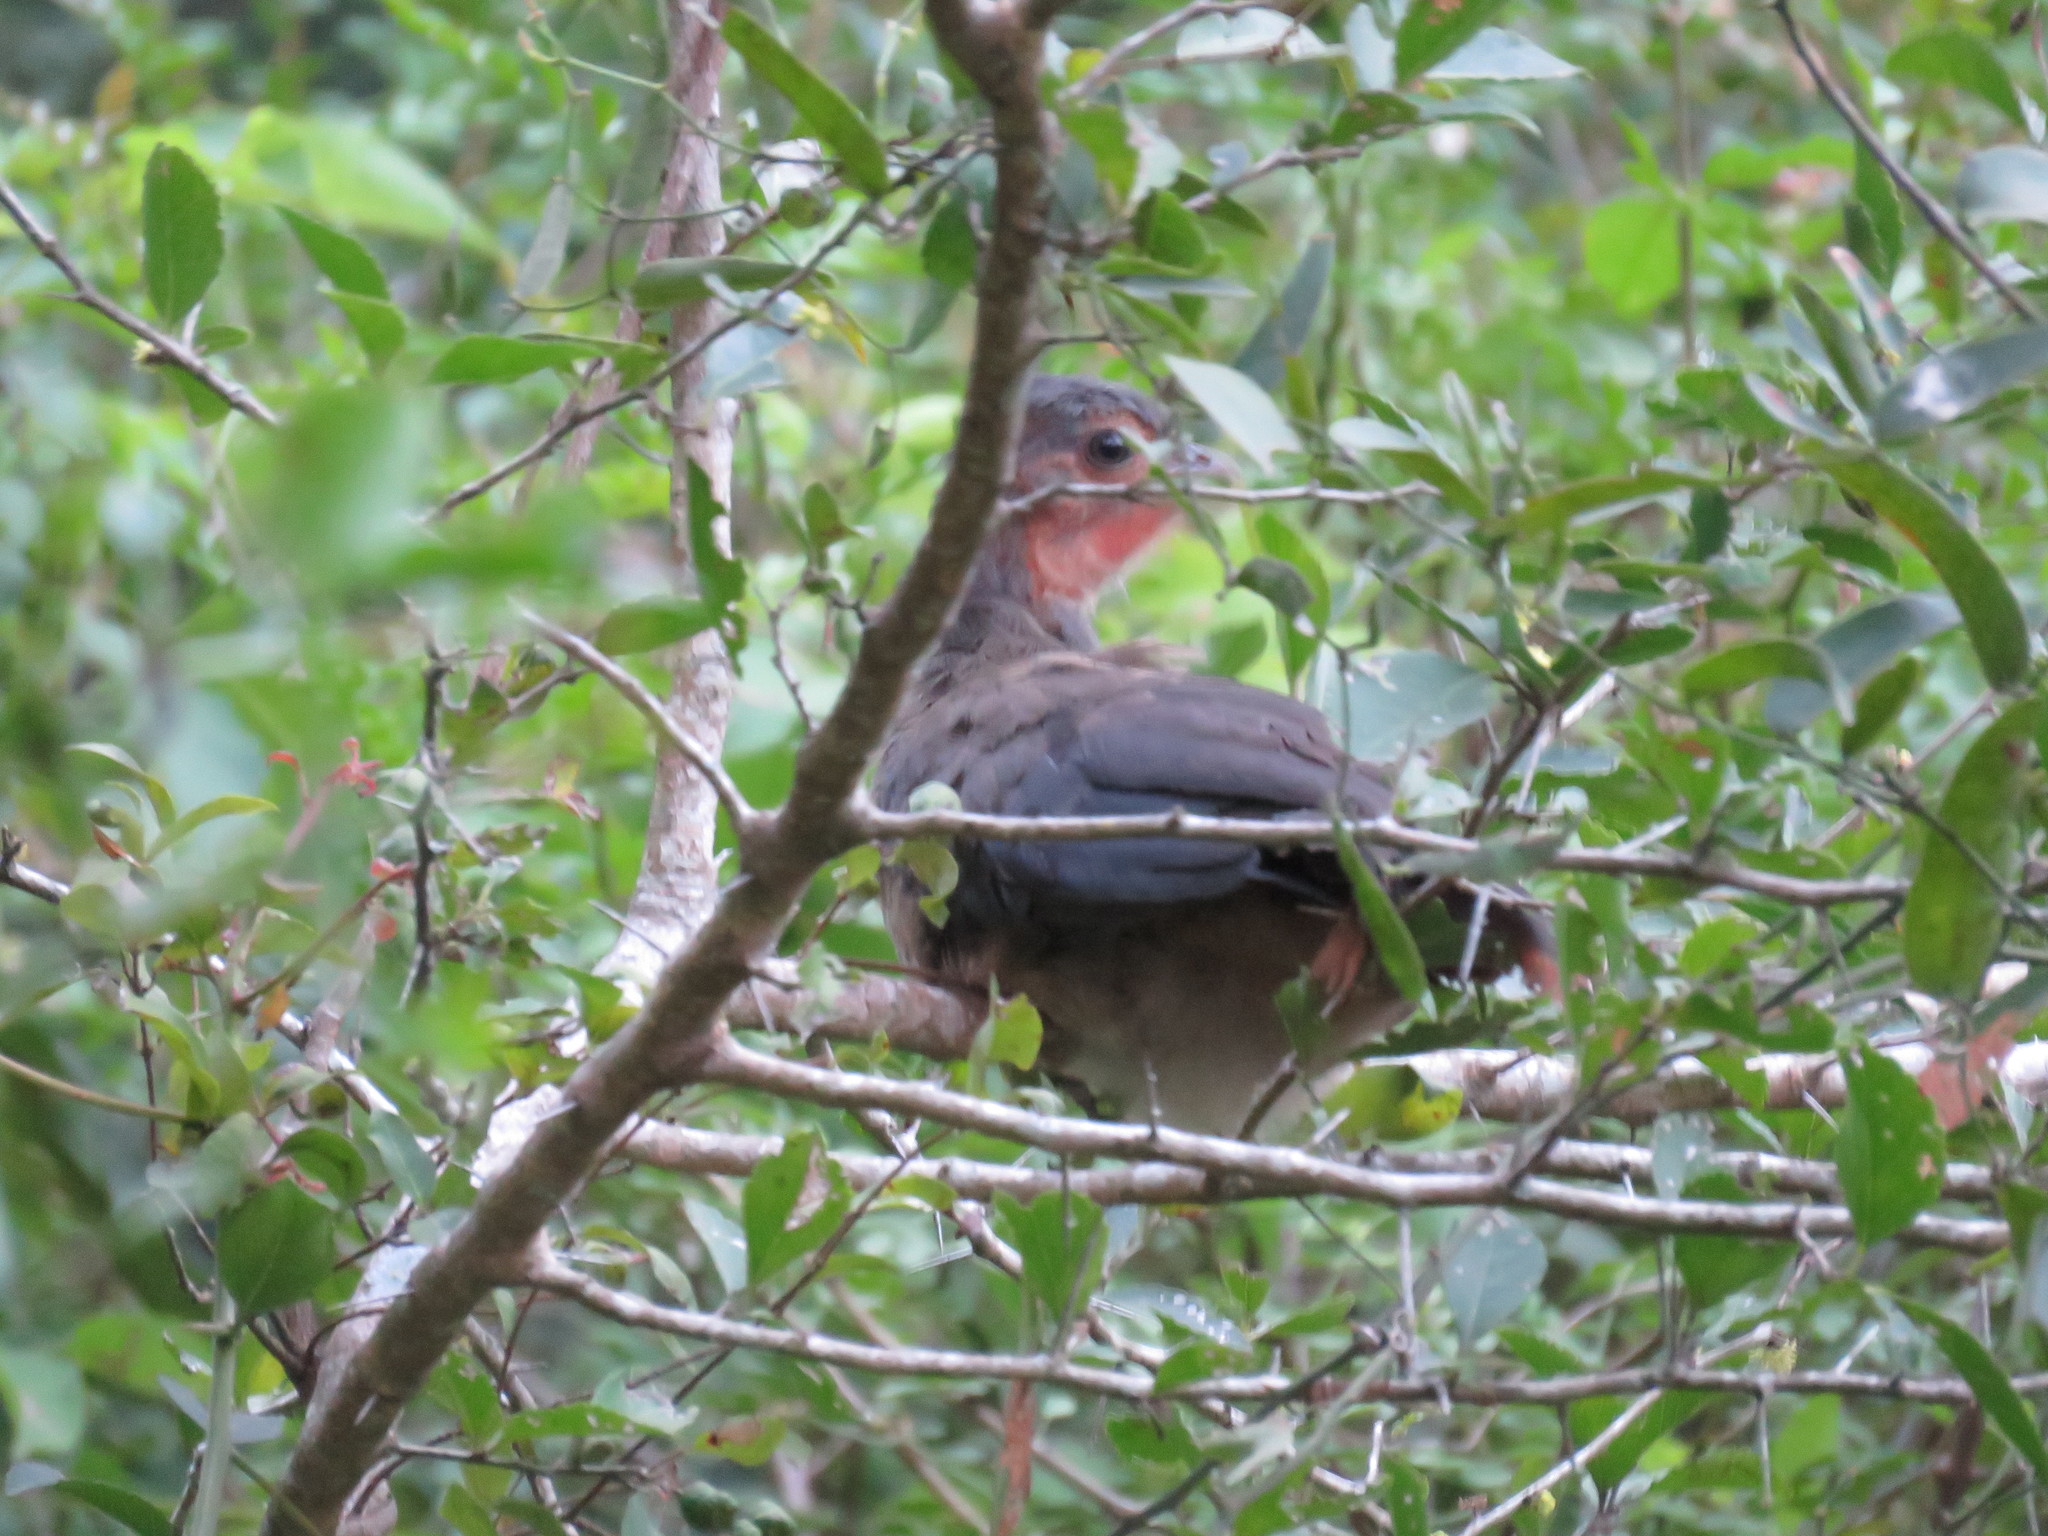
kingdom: Animalia
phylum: Chordata
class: Aves
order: Galliformes
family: Cracidae
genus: Ortalis
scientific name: Ortalis canicollis
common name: Chaco chachalaca
